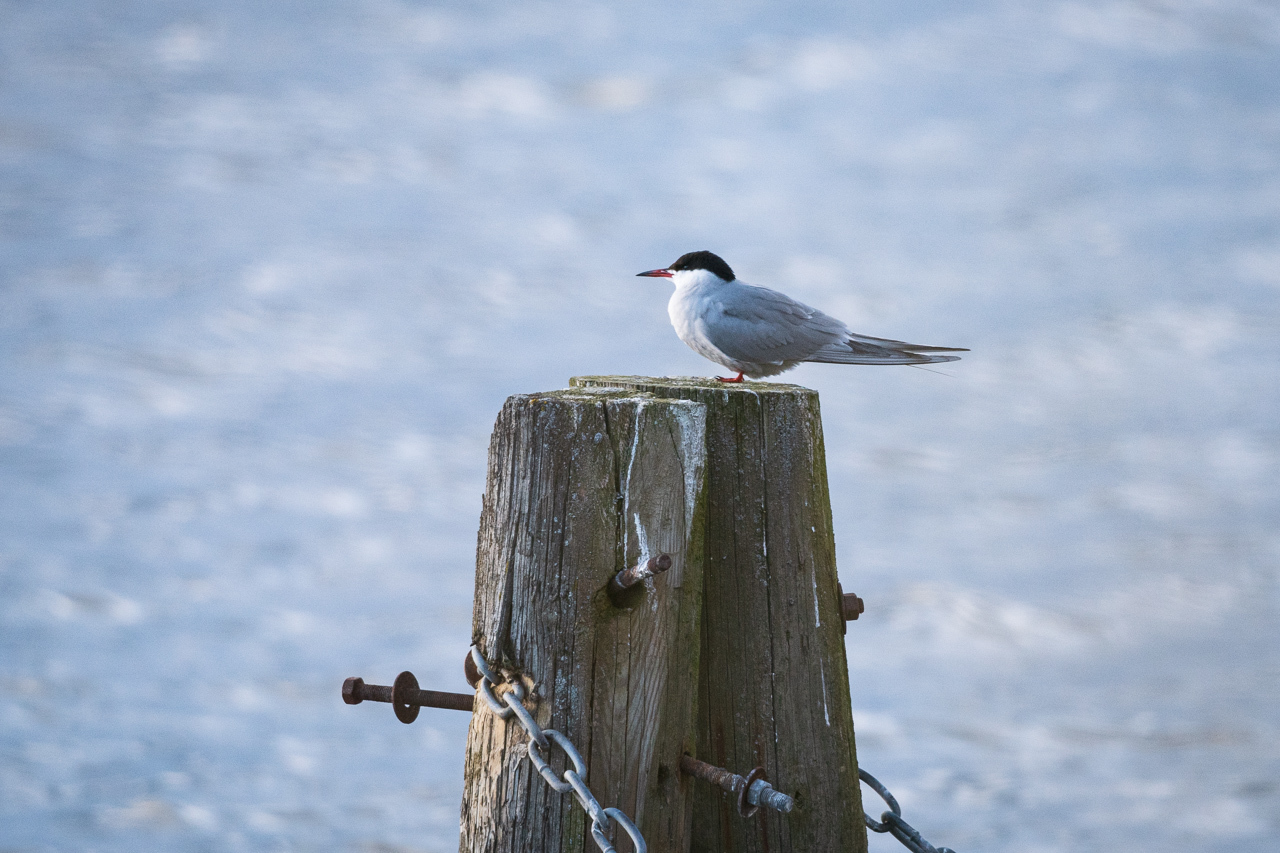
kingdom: Animalia
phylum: Chordata
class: Aves
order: Charadriiformes
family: Laridae
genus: Sterna
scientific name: Sterna hirundo
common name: Common tern
